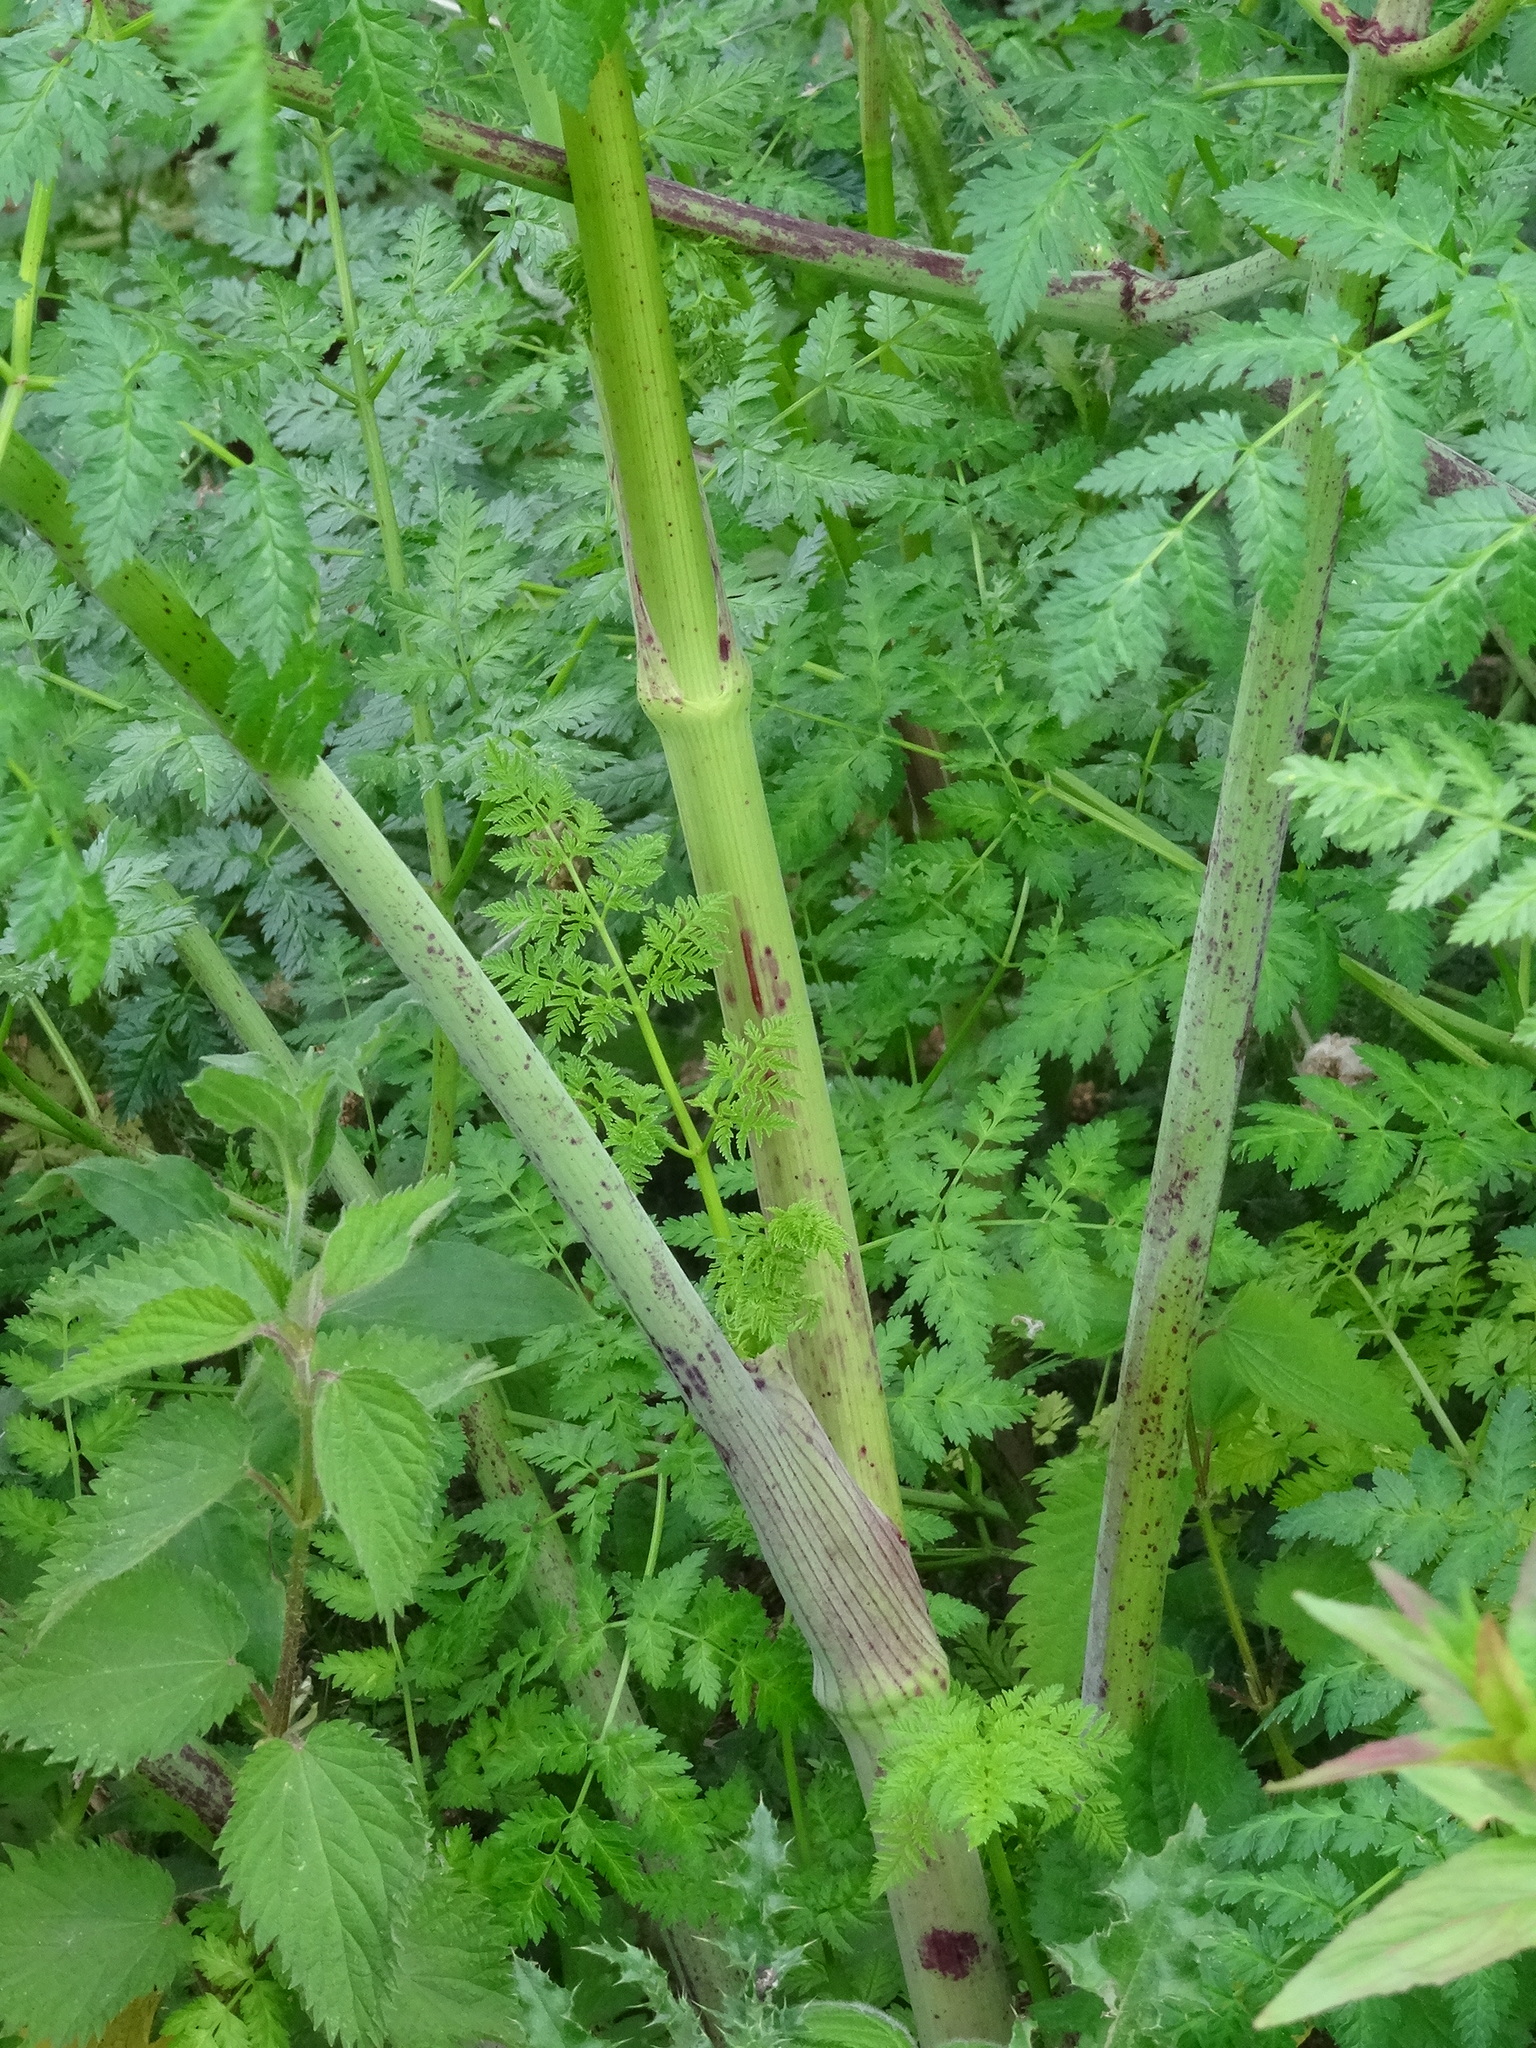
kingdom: Plantae
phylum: Tracheophyta
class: Magnoliopsida
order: Apiales
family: Apiaceae
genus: Conium
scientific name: Conium maculatum
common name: Hemlock
